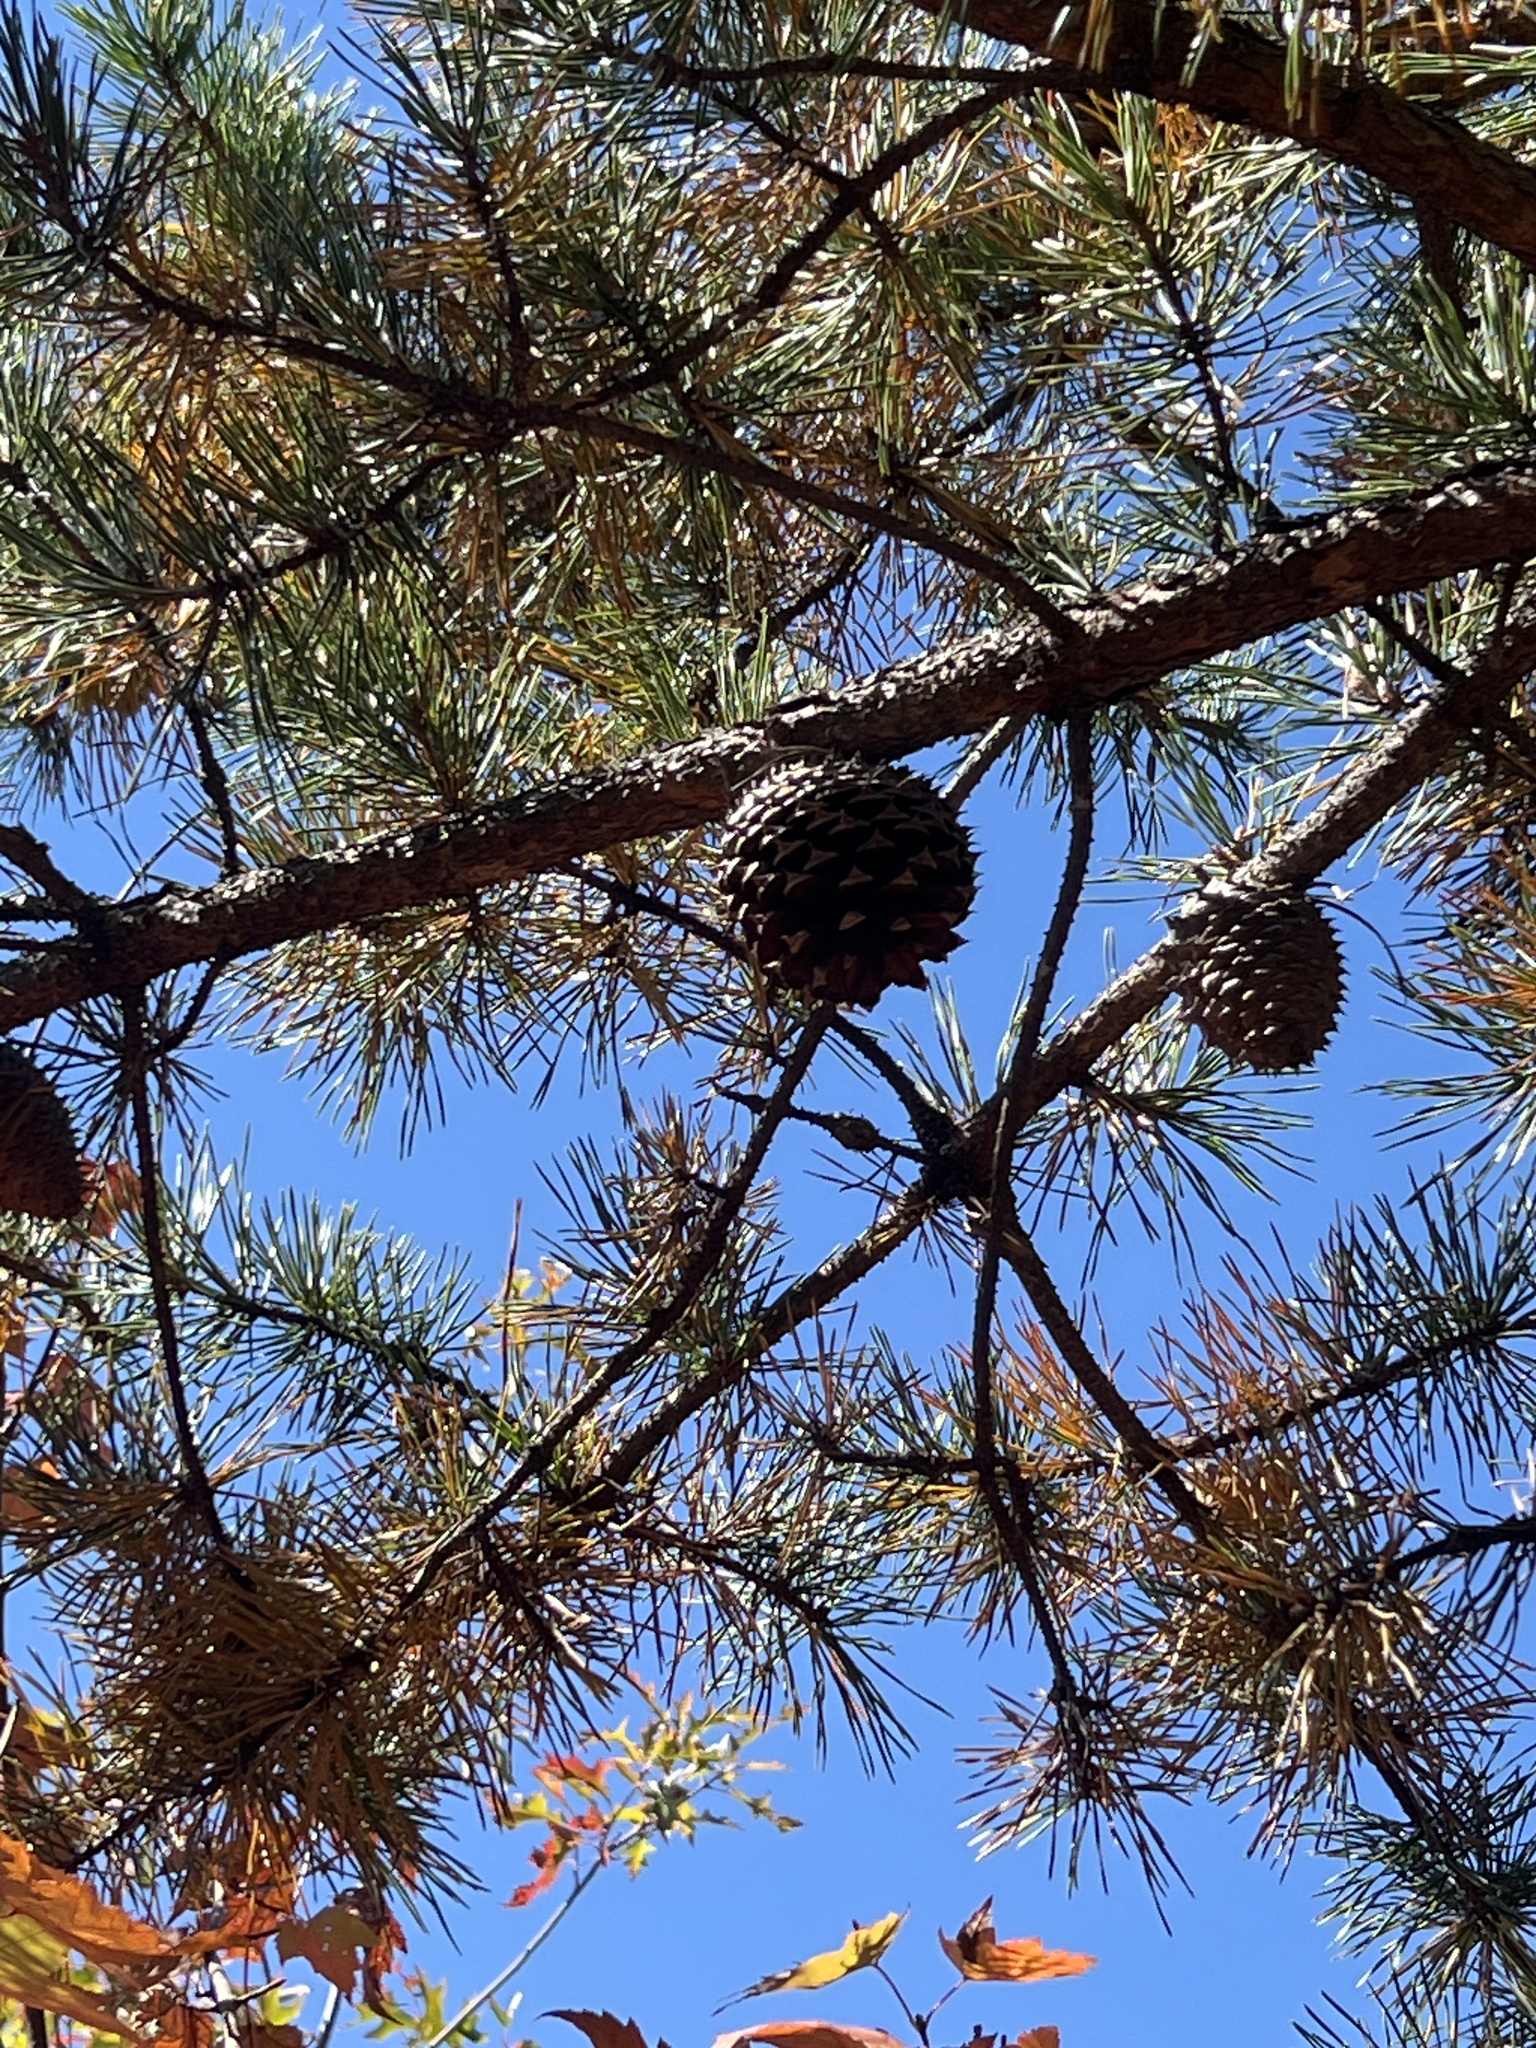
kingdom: Plantae
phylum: Tracheophyta
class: Pinopsida
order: Pinales
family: Pinaceae
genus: Pinus
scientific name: Pinus pungens
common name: Hickory pine
